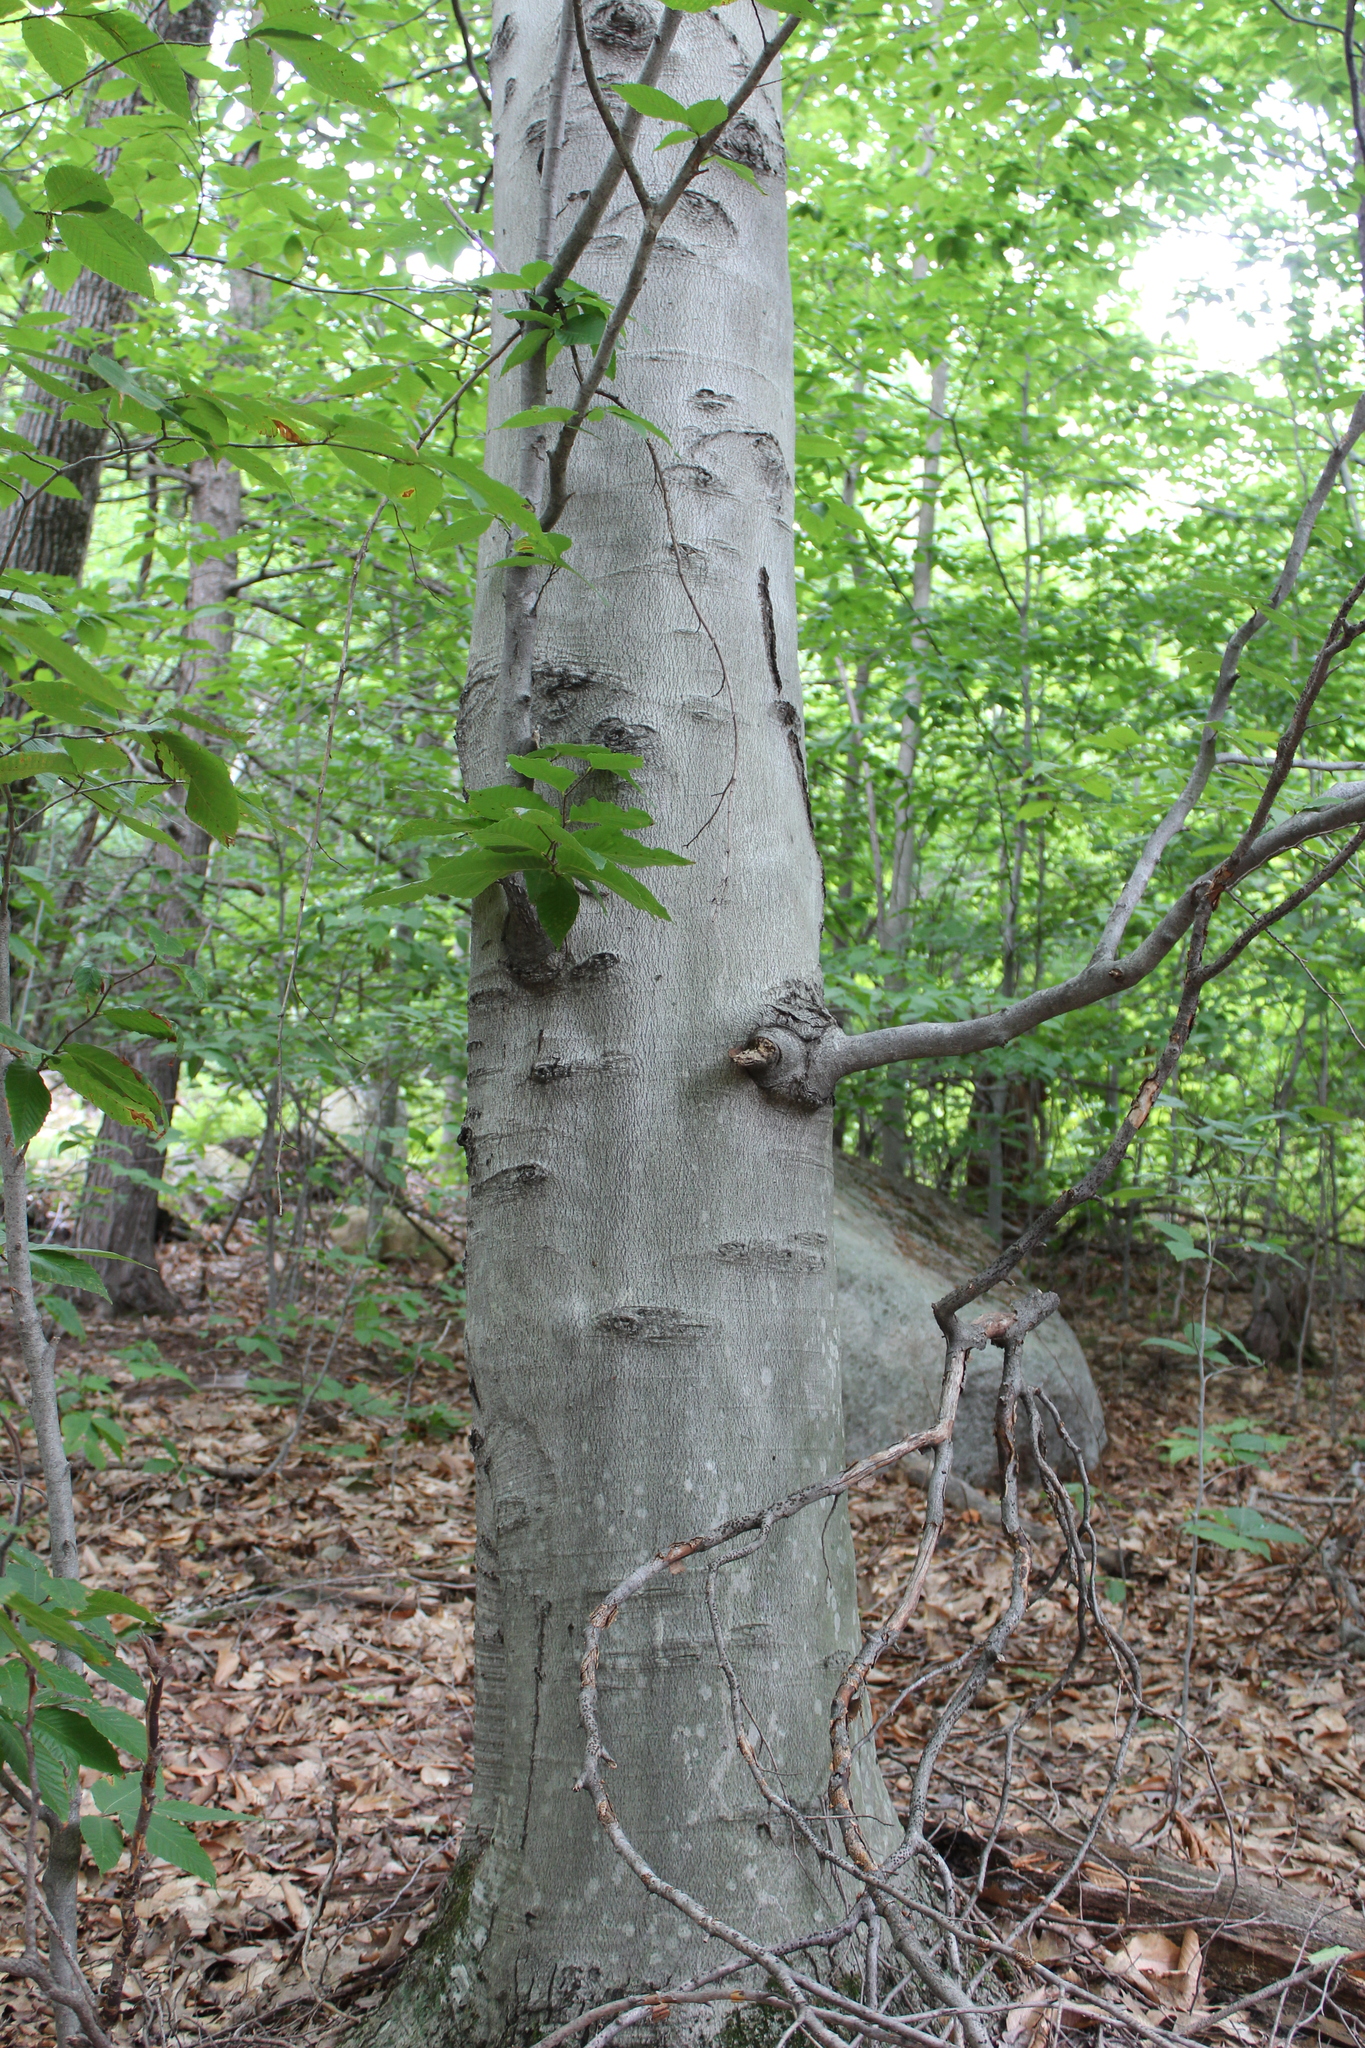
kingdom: Plantae
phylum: Tracheophyta
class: Magnoliopsida
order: Fagales
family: Fagaceae
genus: Fagus
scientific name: Fagus grandifolia
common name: American beech
